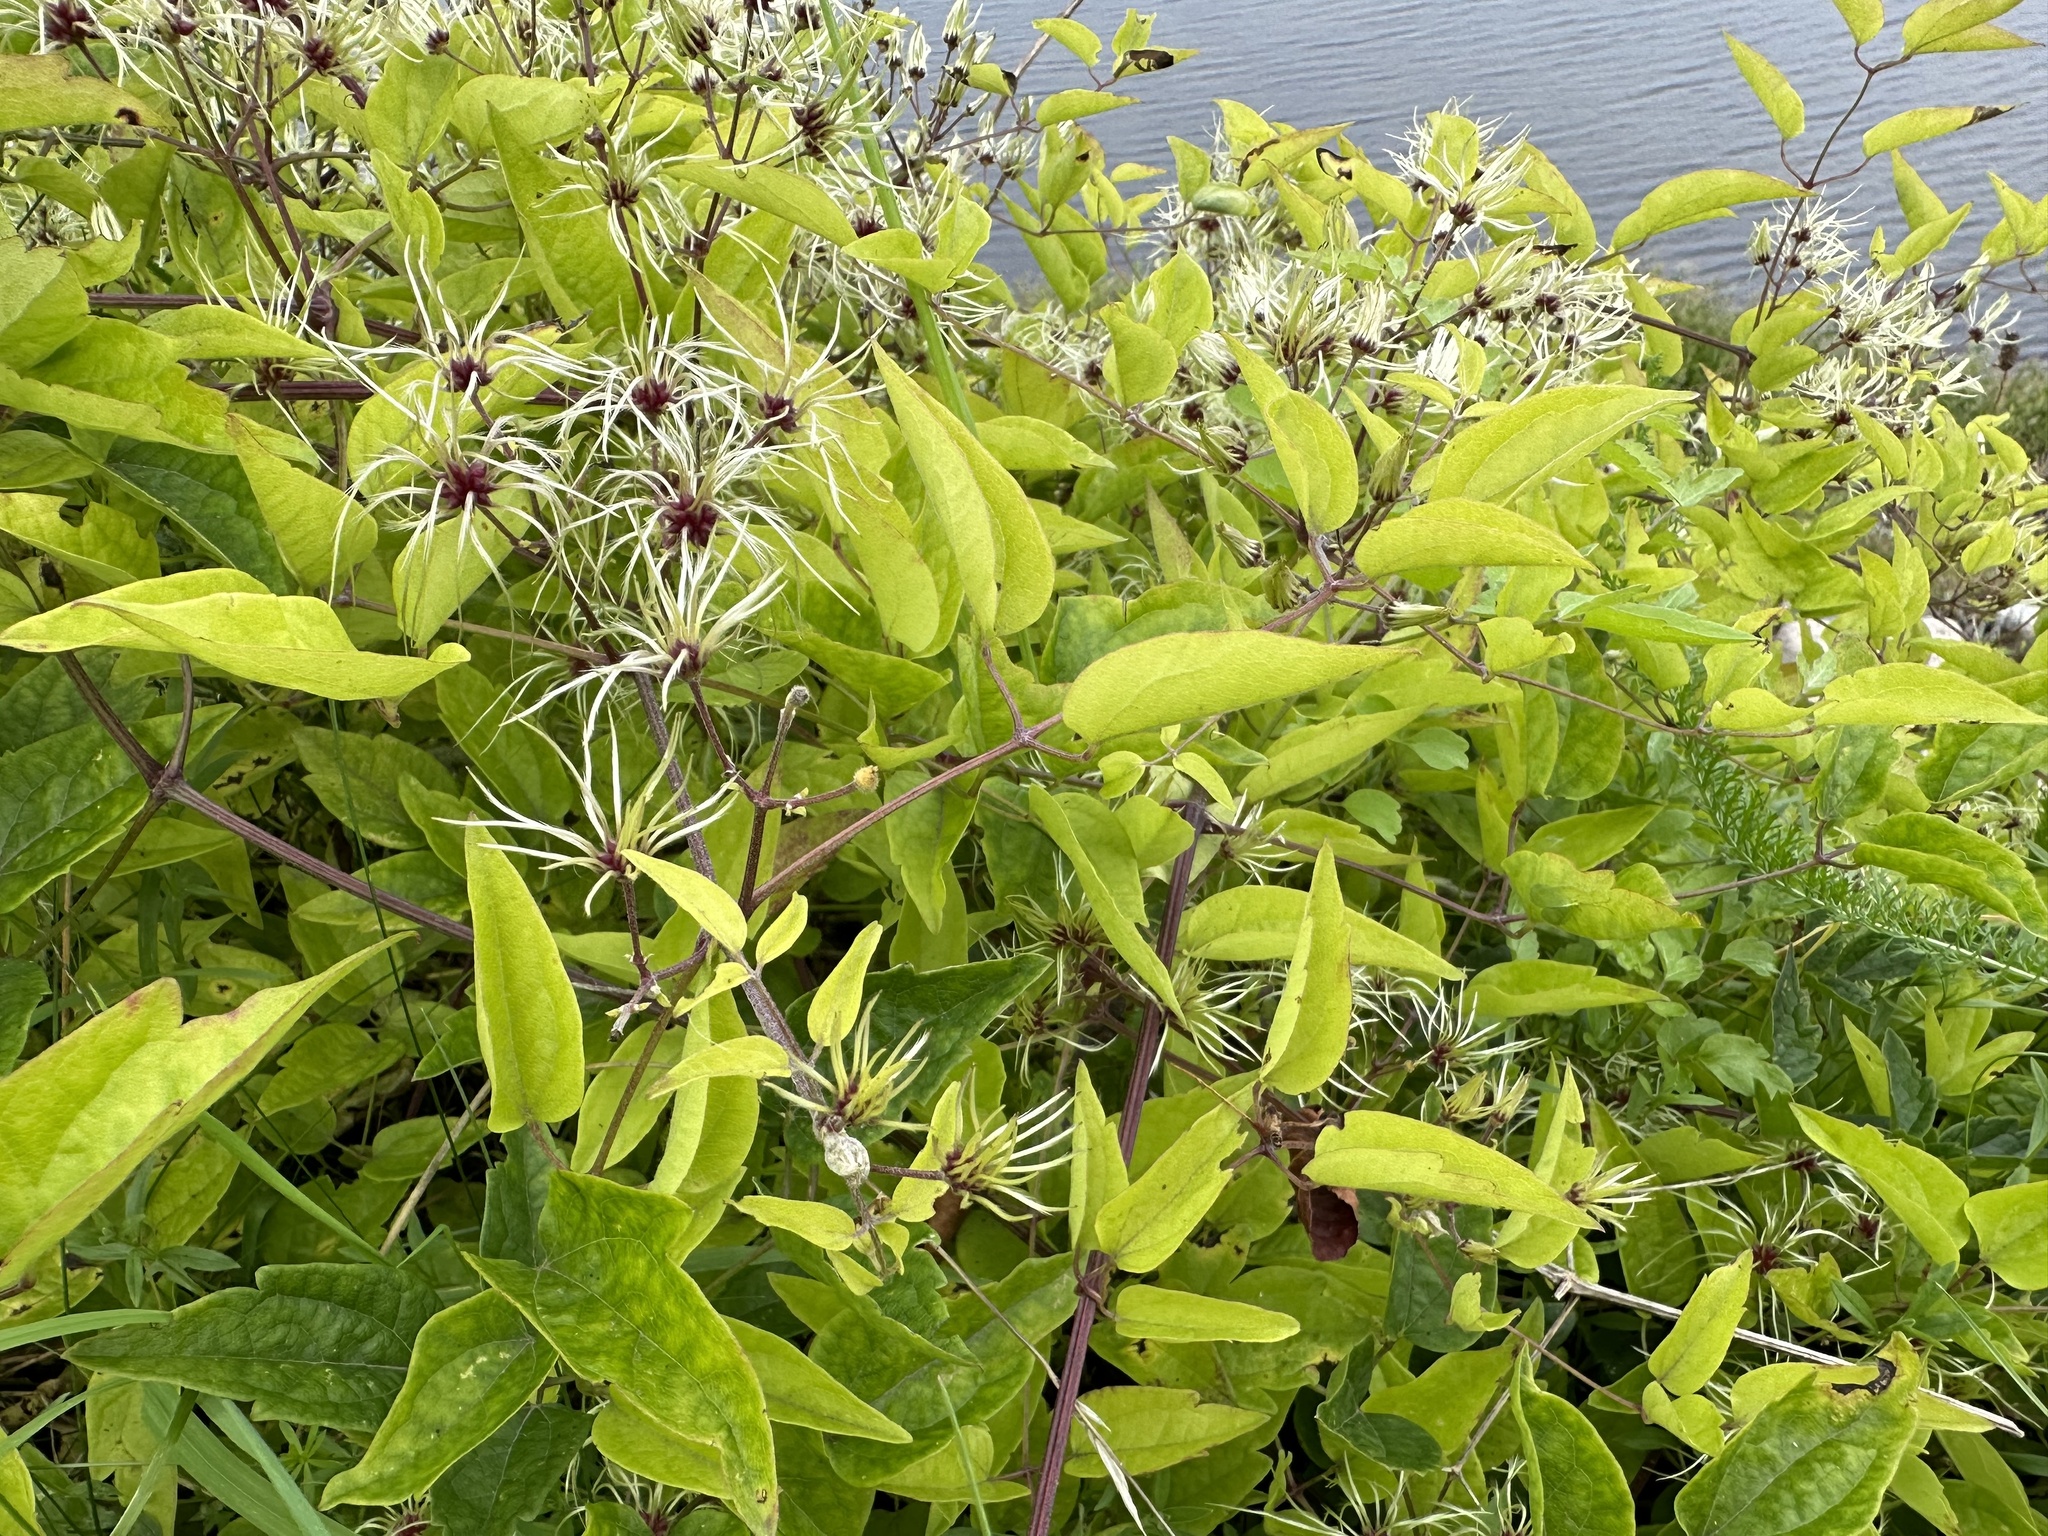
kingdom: Plantae
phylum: Tracheophyta
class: Magnoliopsida
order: Ranunculales
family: Ranunculaceae
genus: Clematis
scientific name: Clematis vitalba
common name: Evergreen clematis
